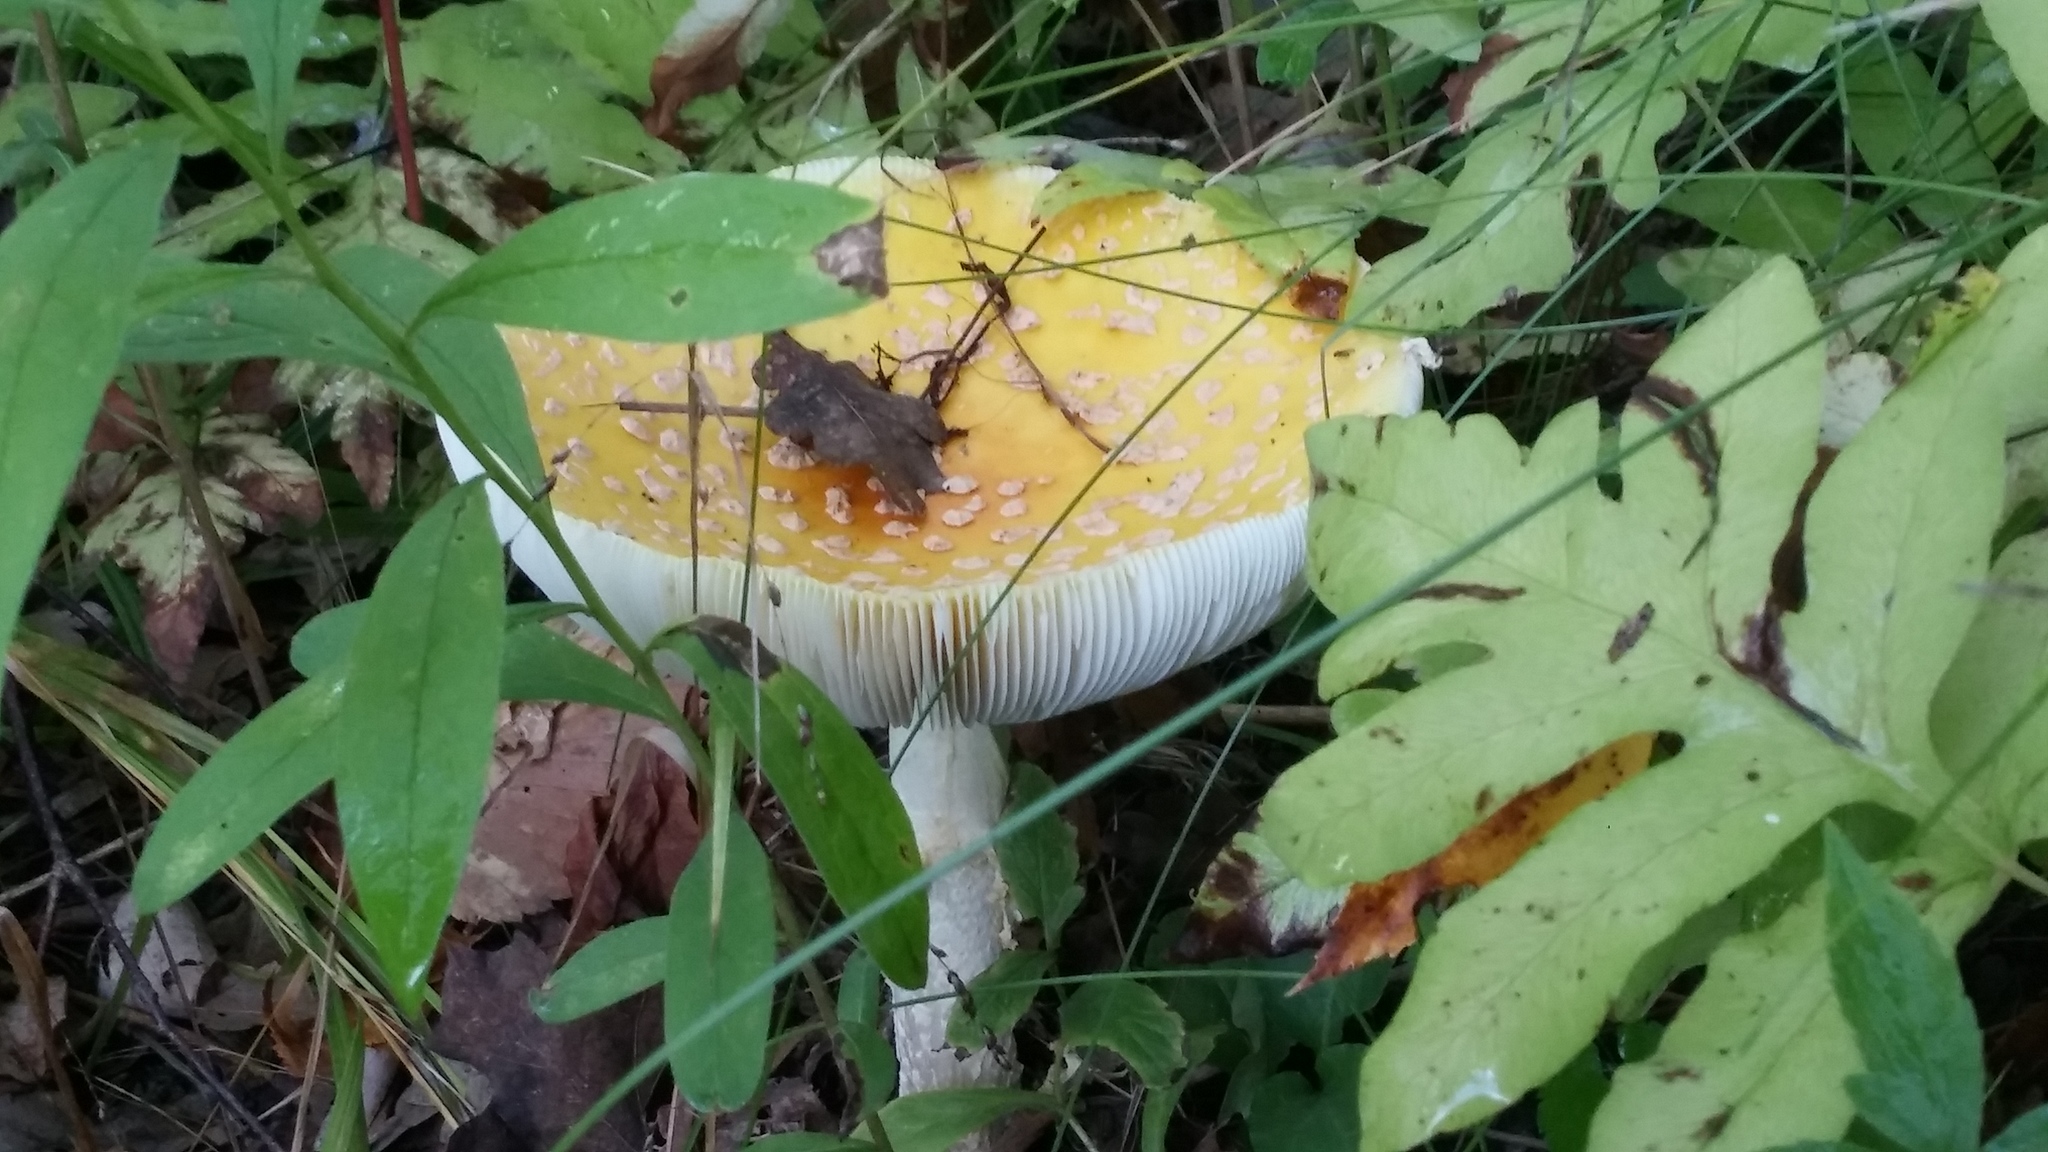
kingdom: Fungi
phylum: Basidiomycota
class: Agaricomycetes
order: Agaricales
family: Amanitaceae
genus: Amanita
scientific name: Amanita muscaria
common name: Fly agaric
